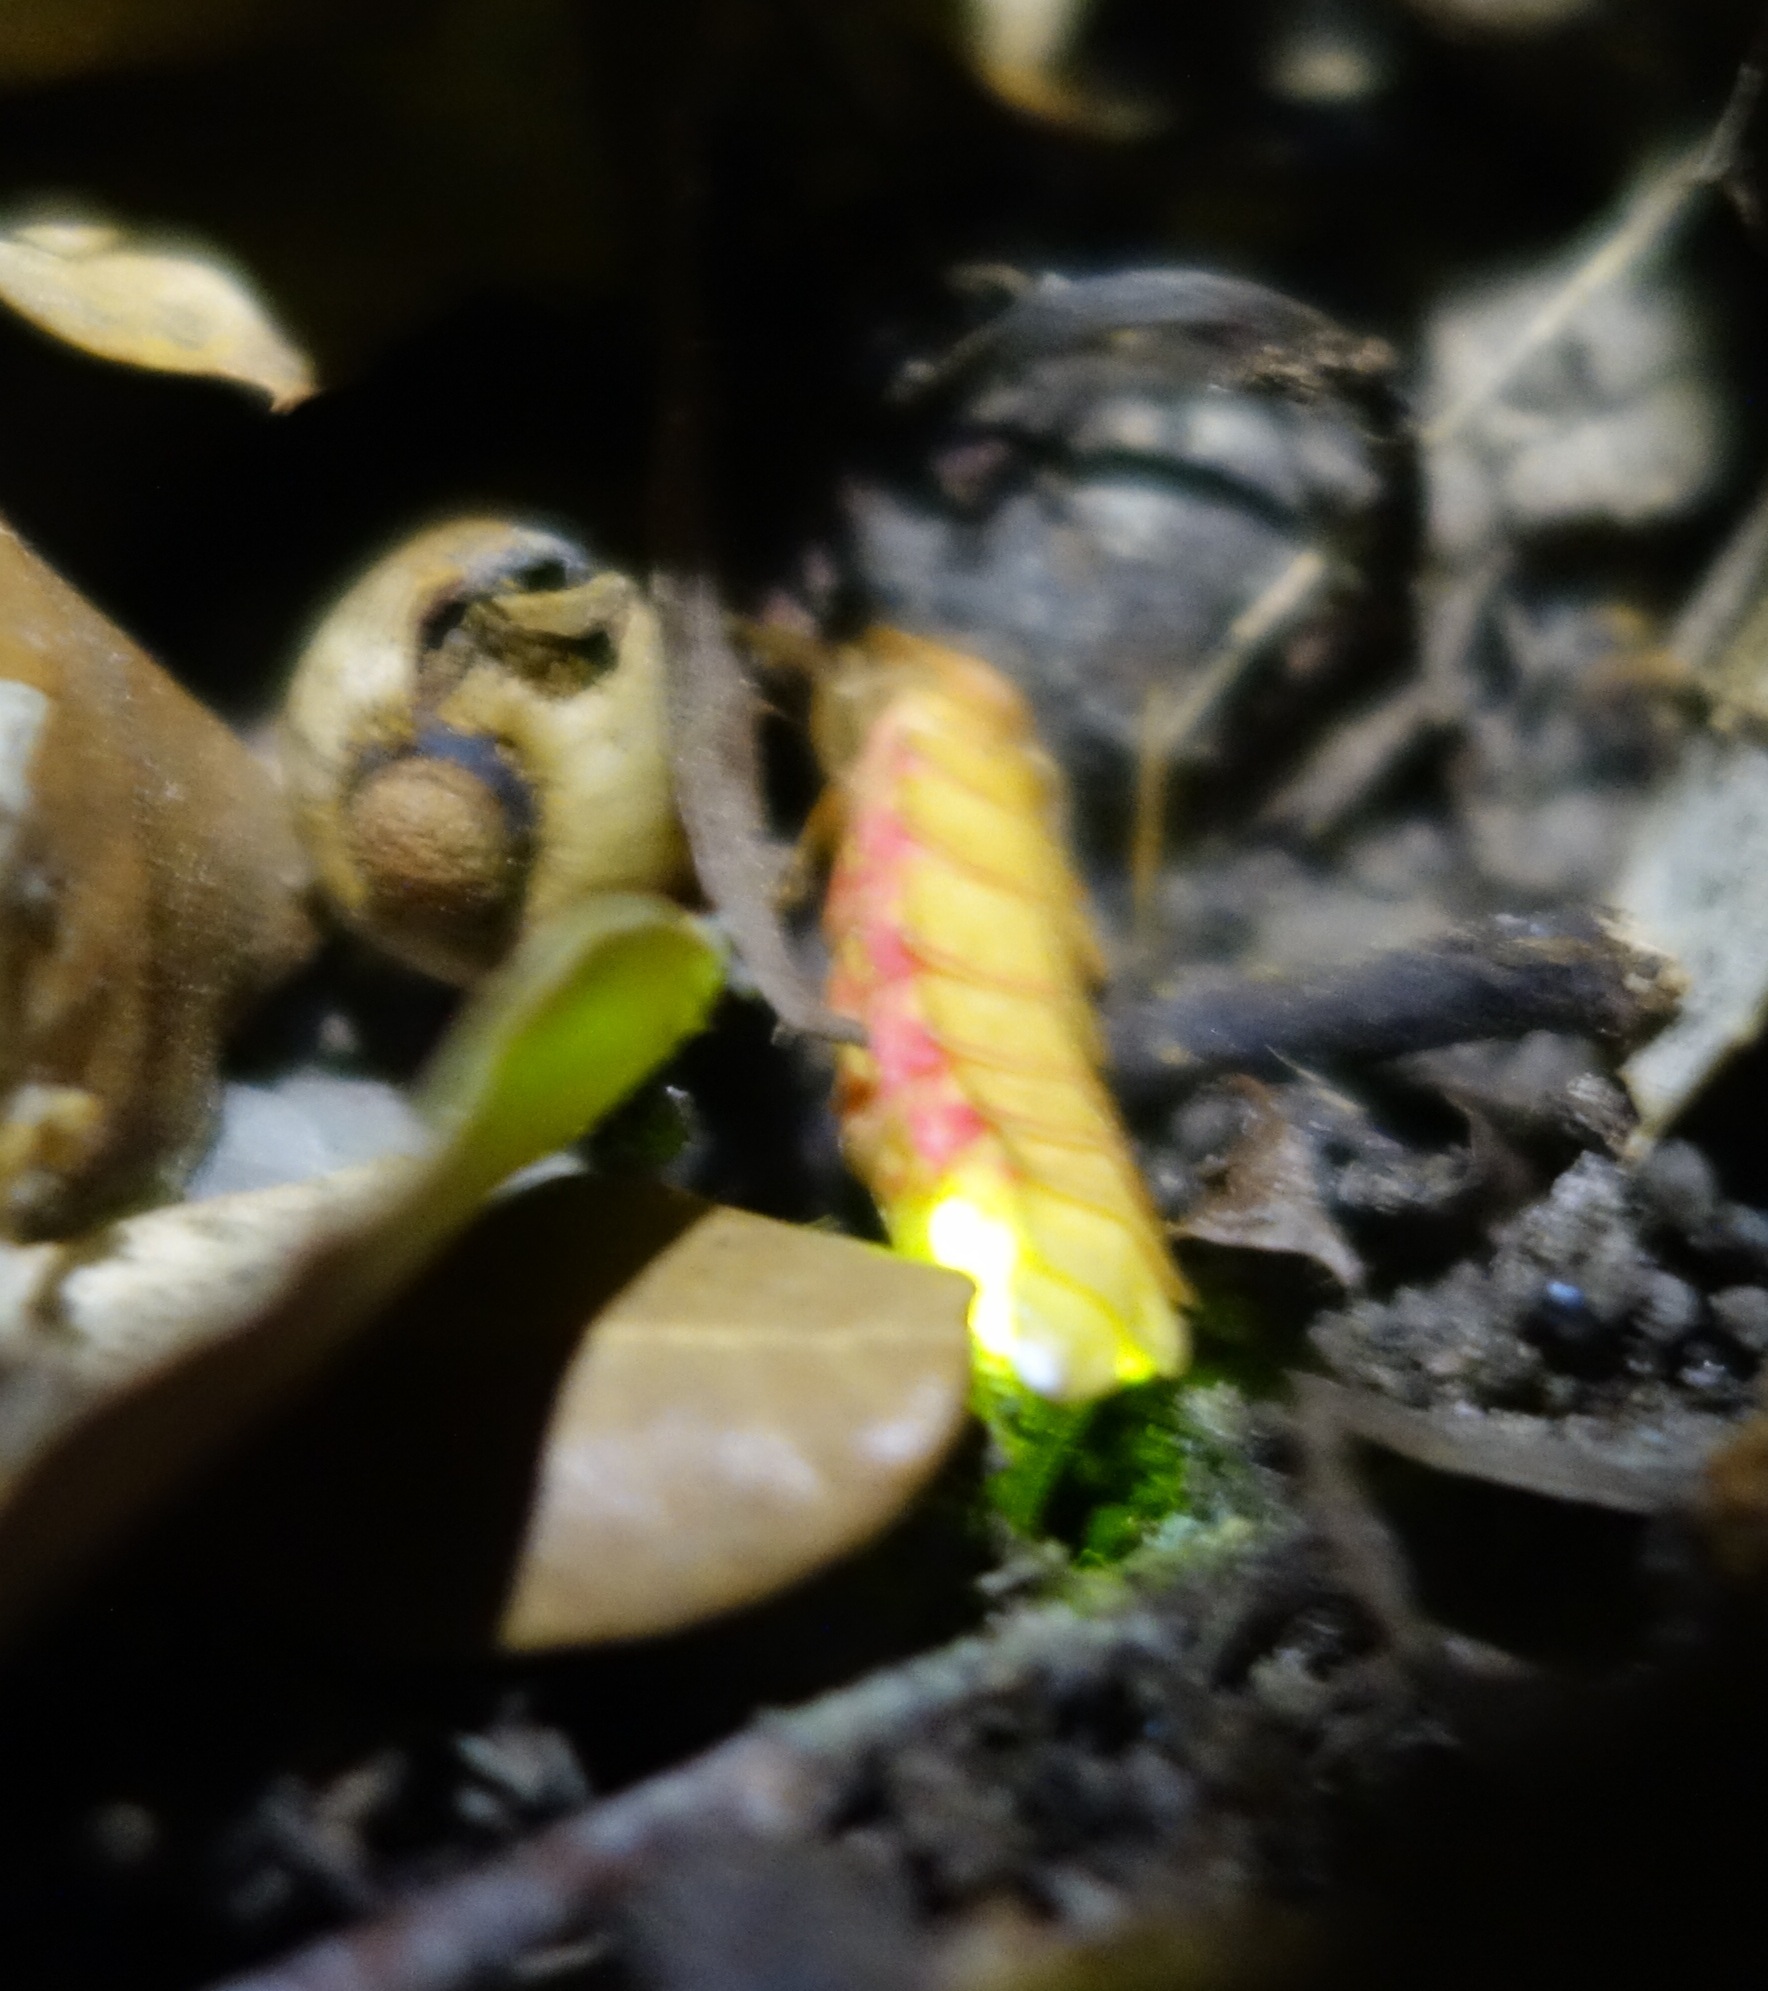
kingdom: Animalia
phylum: Arthropoda
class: Insecta
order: Coleoptera
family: Lampyridae
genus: Nyctophila
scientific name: Nyctophila reichii
